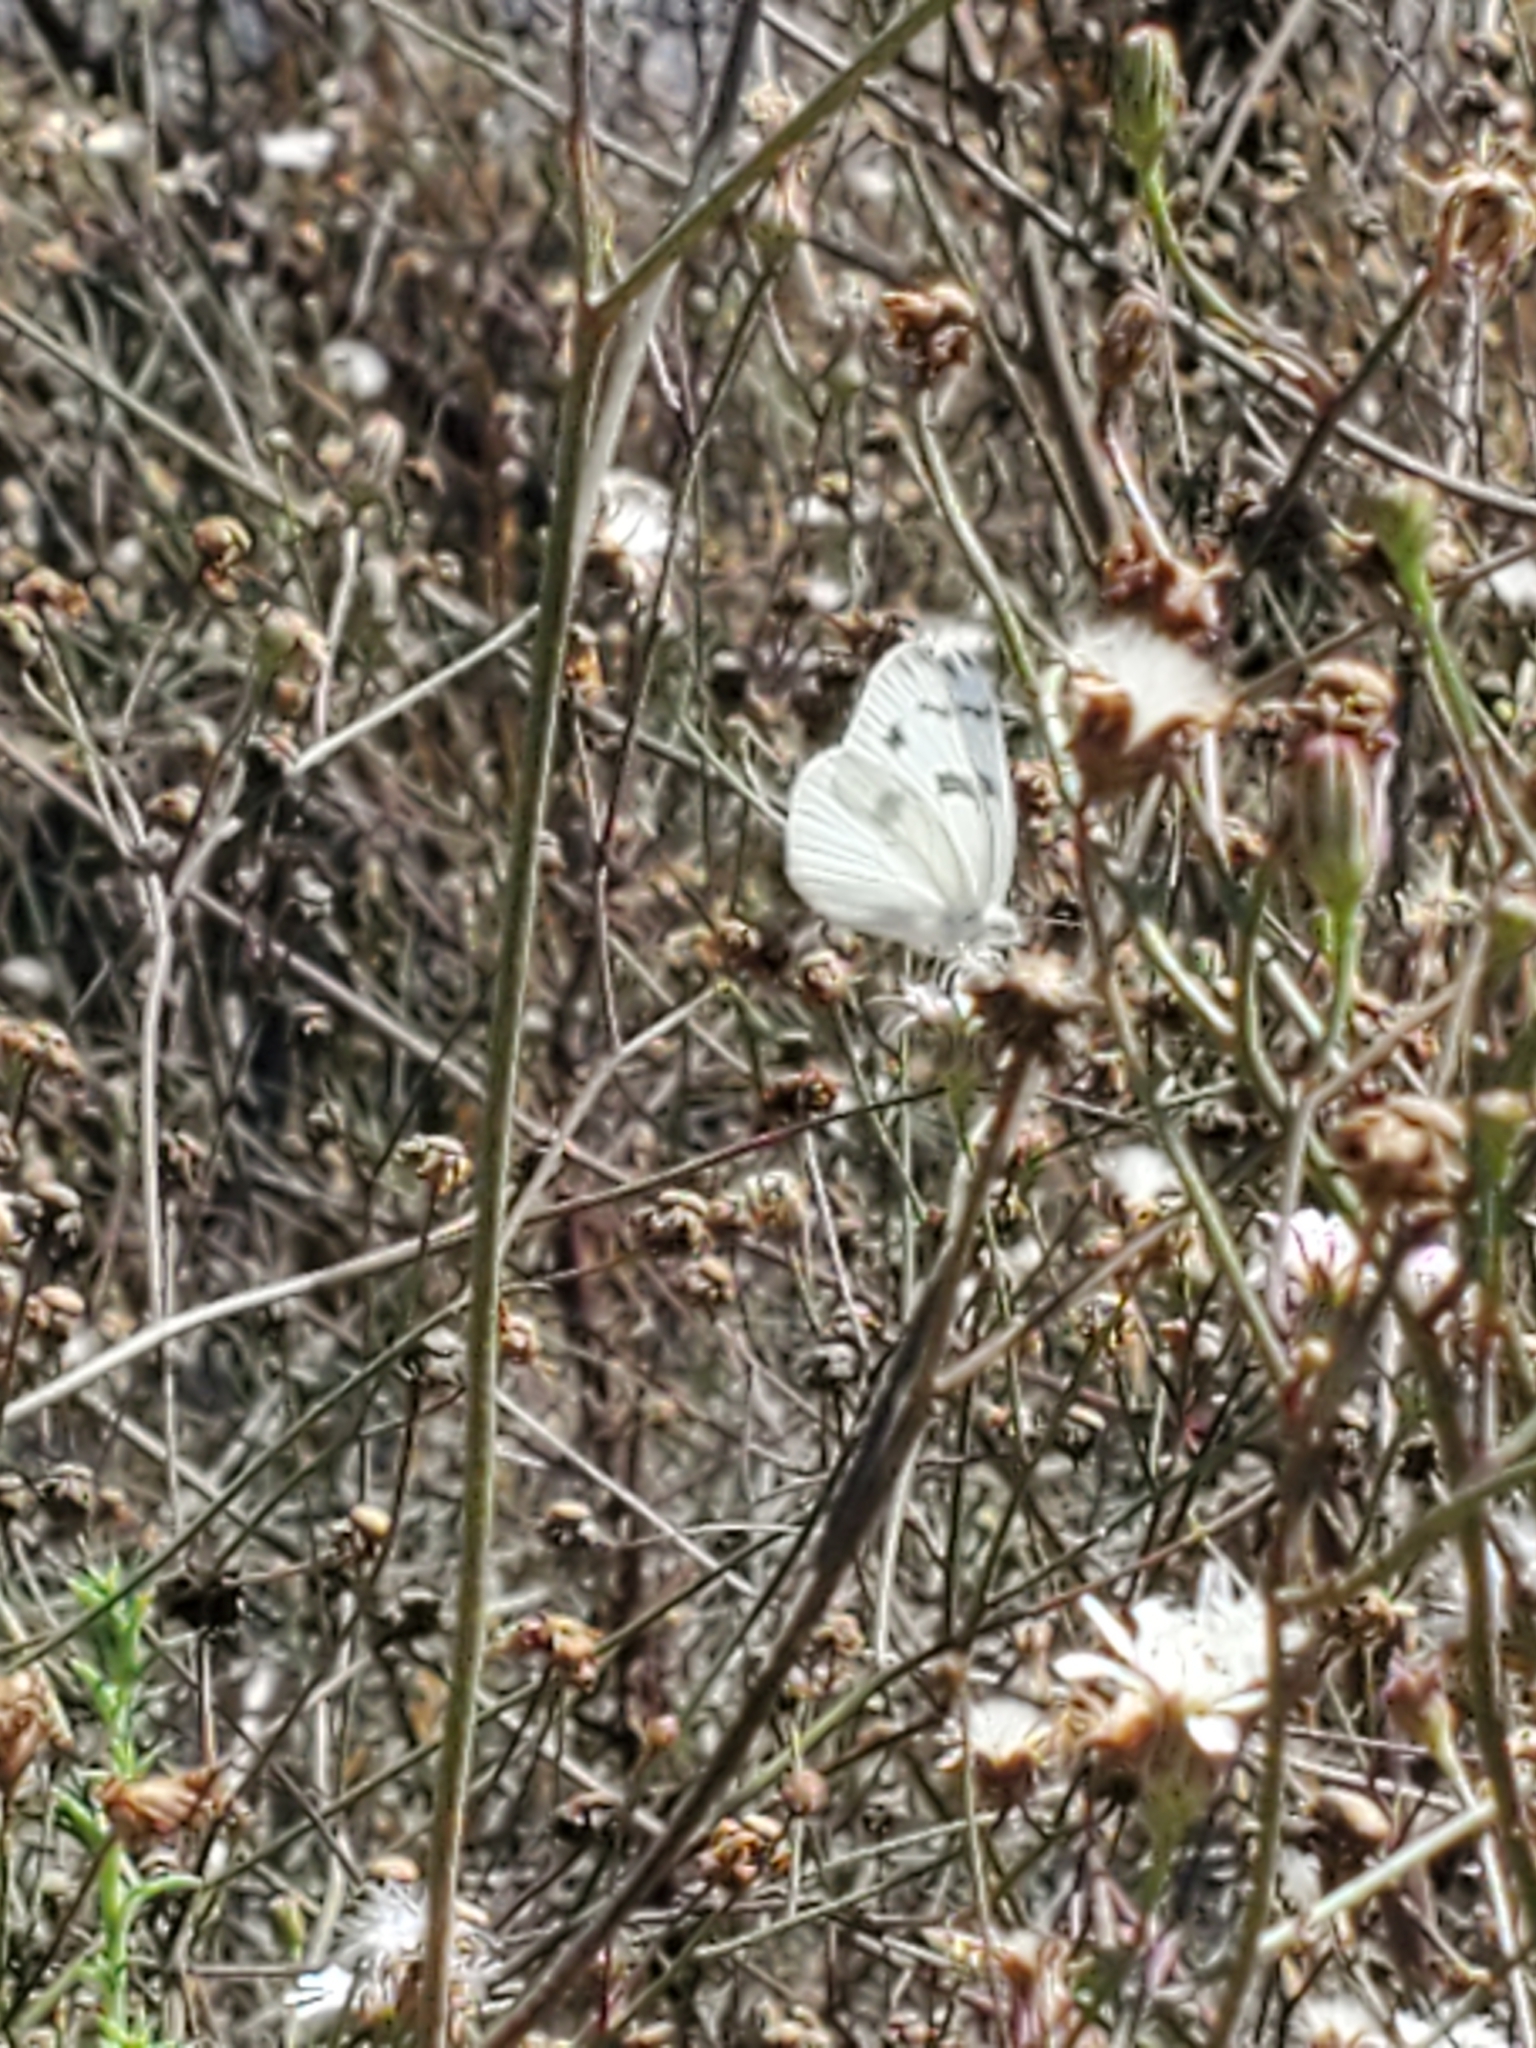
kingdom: Animalia
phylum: Arthropoda
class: Insecta
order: Lepidoptera
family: Pieridae
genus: Pontia
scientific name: Pontia protodice
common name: Checkered white
